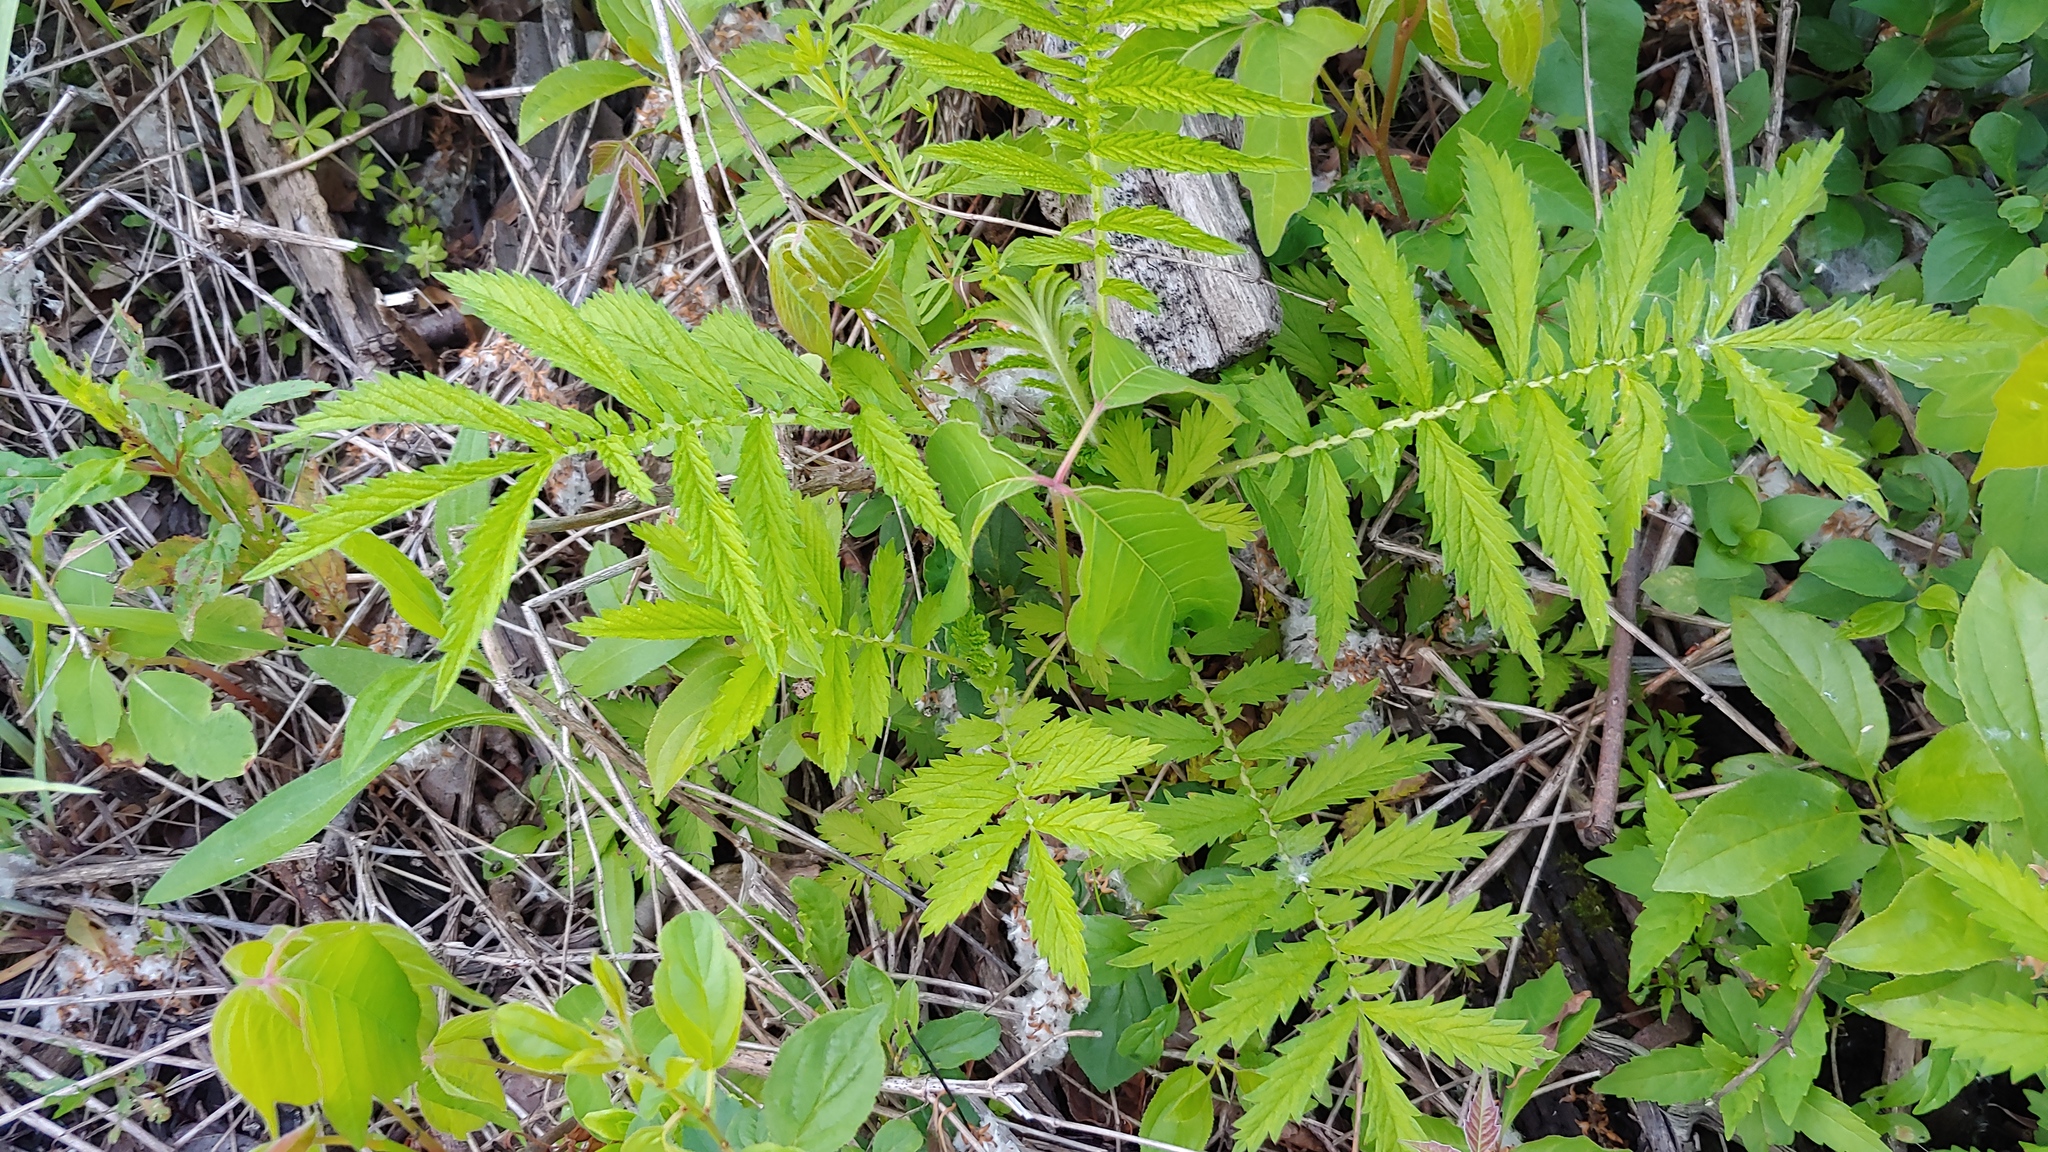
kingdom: Plantae
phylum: Tracheophyta
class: Magnoliopsida
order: Rosales
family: Rosaceae
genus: Agrimonia
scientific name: Agrimonia parviflora
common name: Harvest-lice
